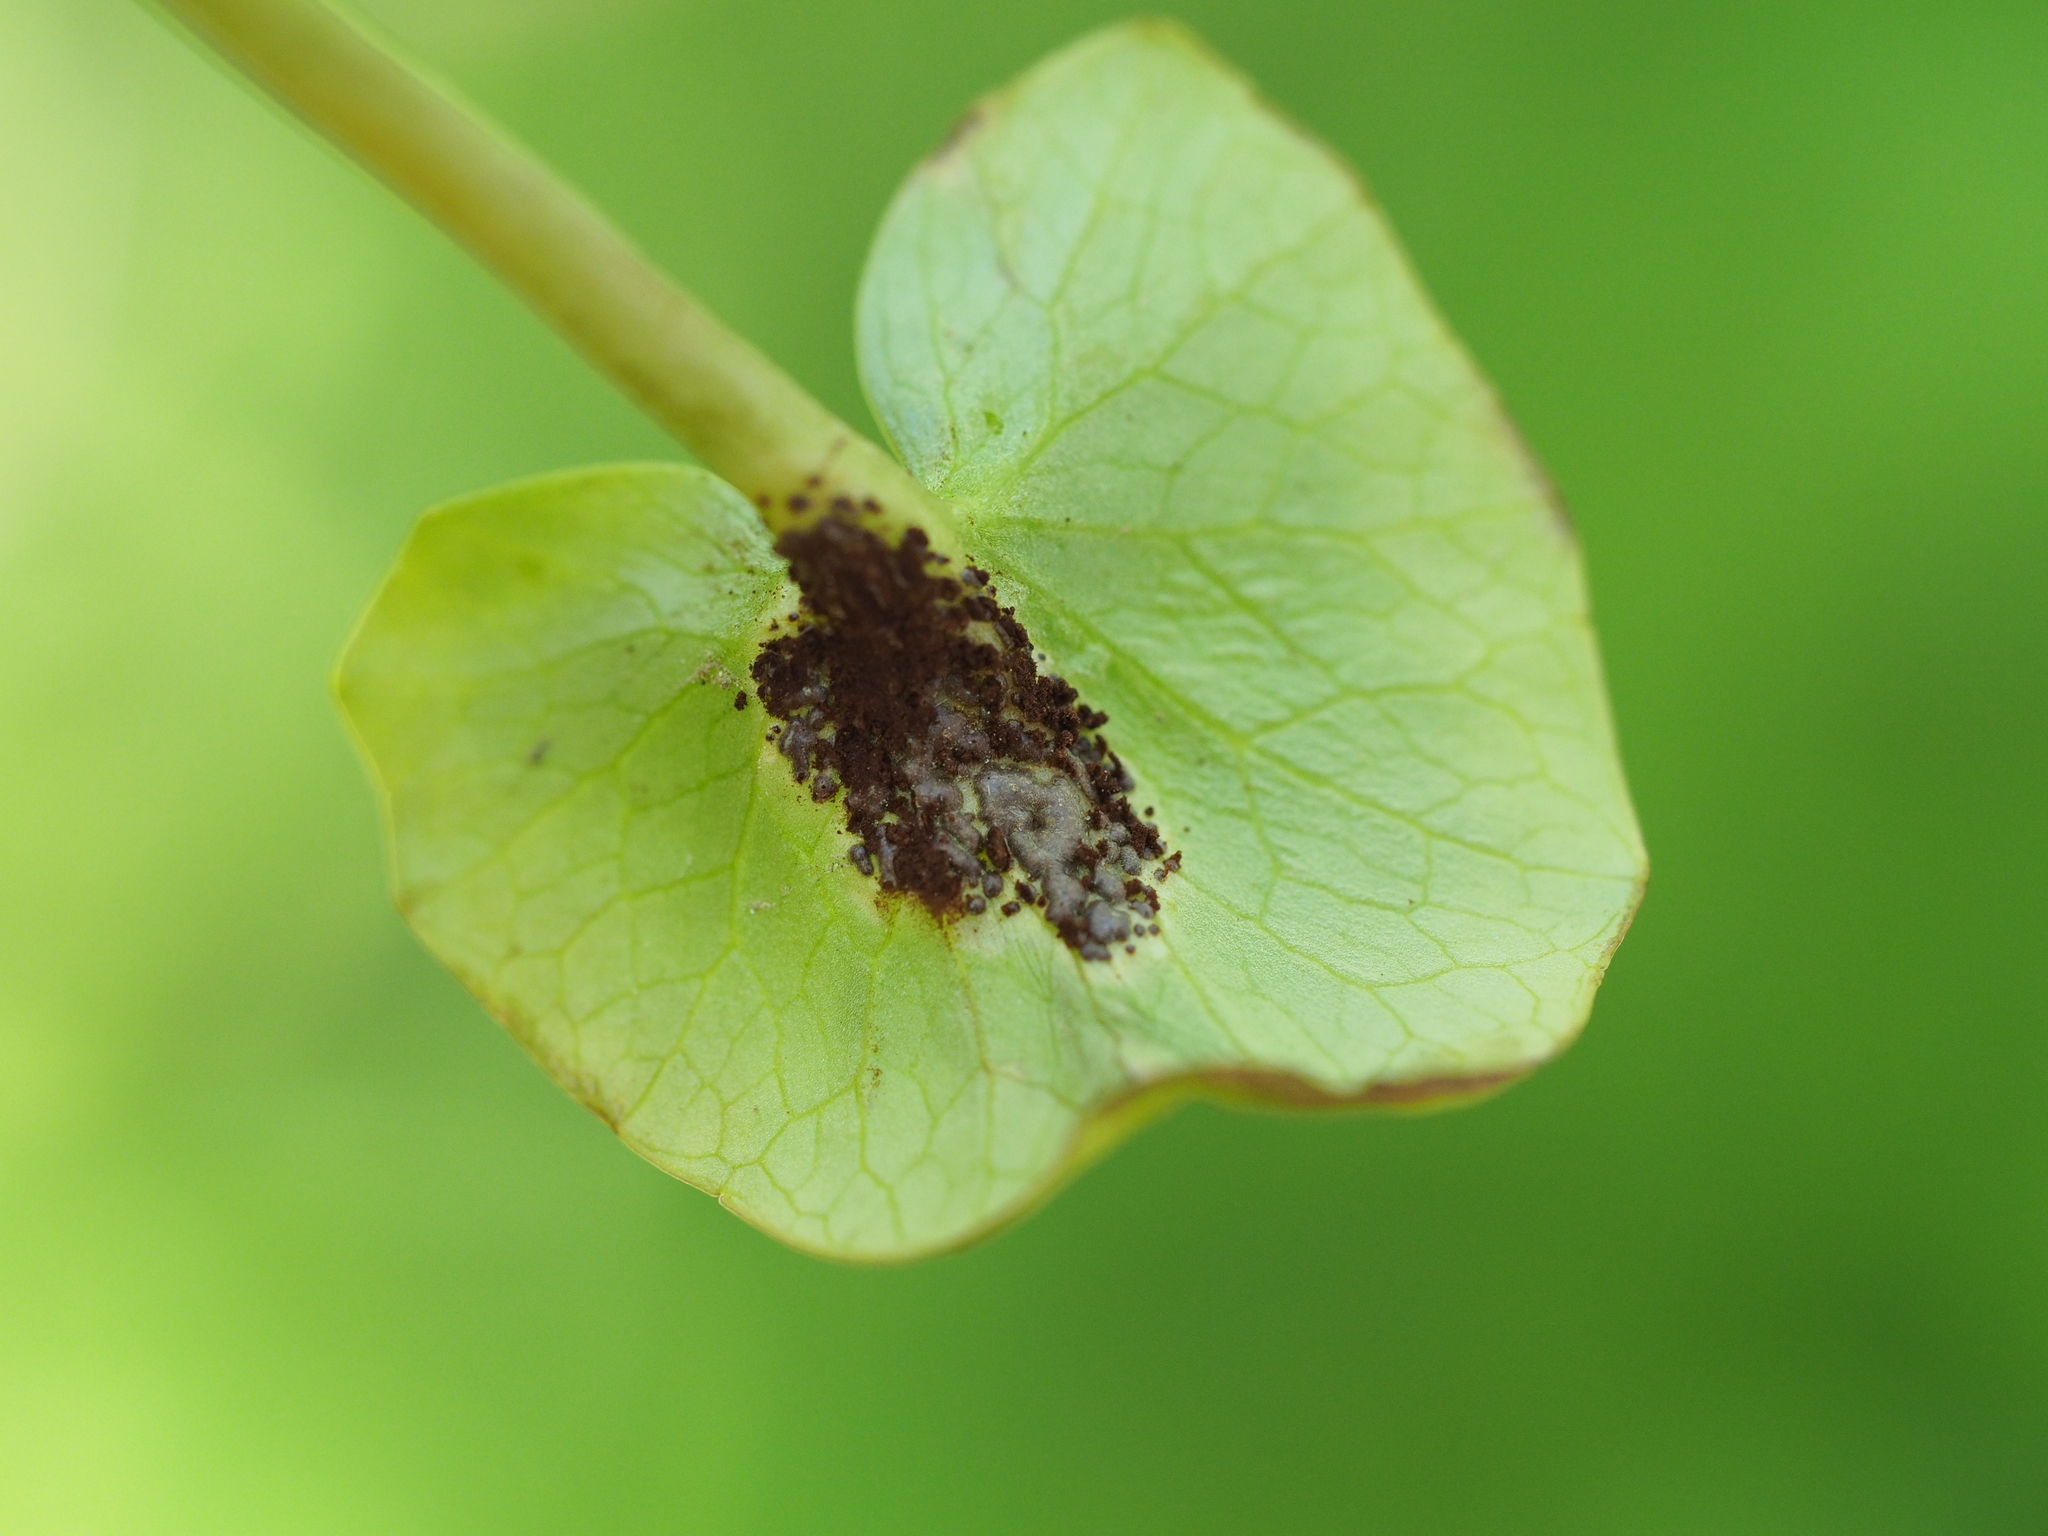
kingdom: Fungi
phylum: Basidiomycota
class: Pucciniomycetes
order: Pucciniales
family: Pucciniaceae
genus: Uromyces
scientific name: Uromyces ficariae
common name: Bitter chocolate rust
